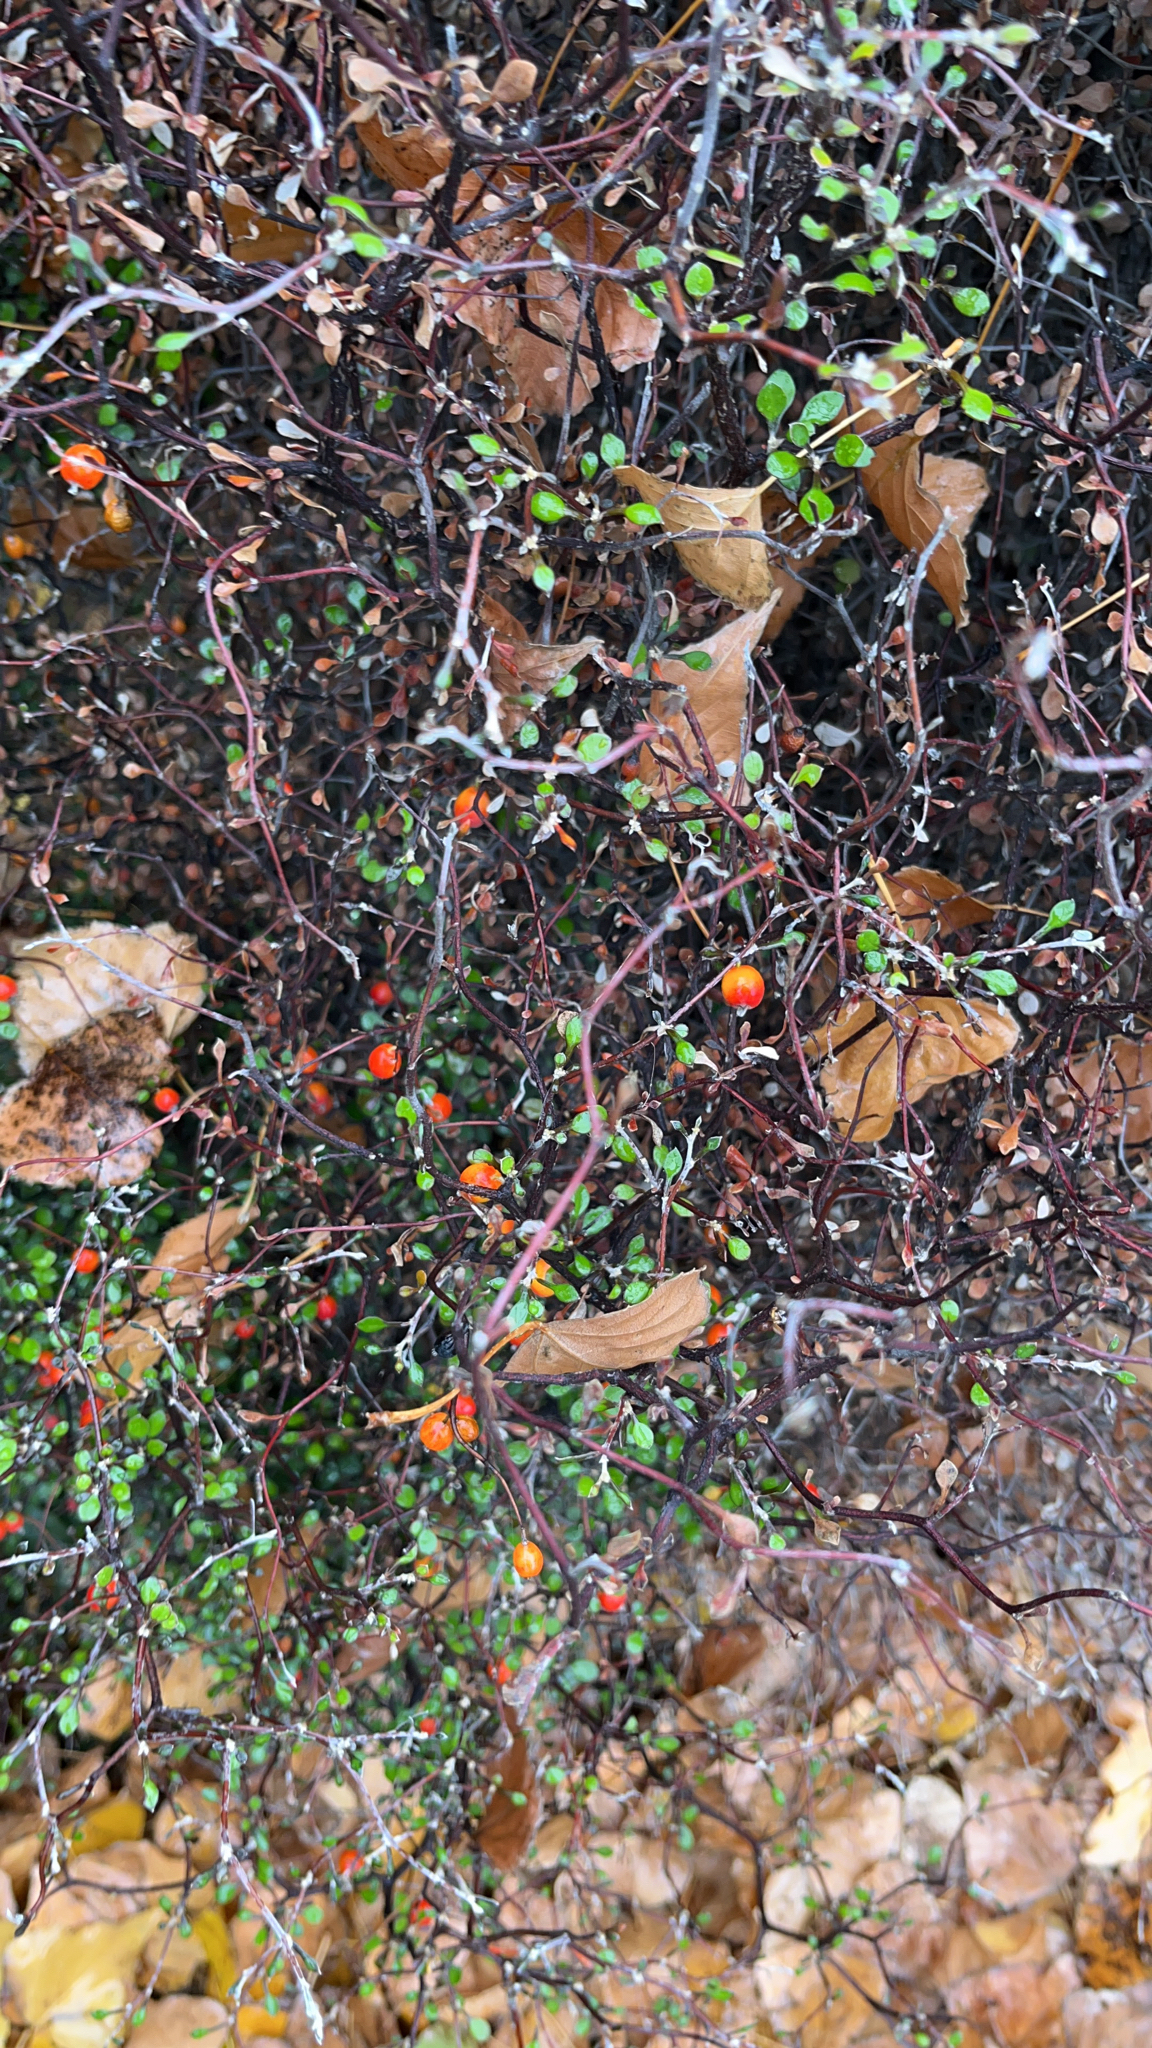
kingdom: Plantae
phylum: Tracheophyta
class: Magnoliopsida
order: Asterales
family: Argophyllaceae
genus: Corokia
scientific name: Corokia cotoneaster
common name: Wire nettingbush
